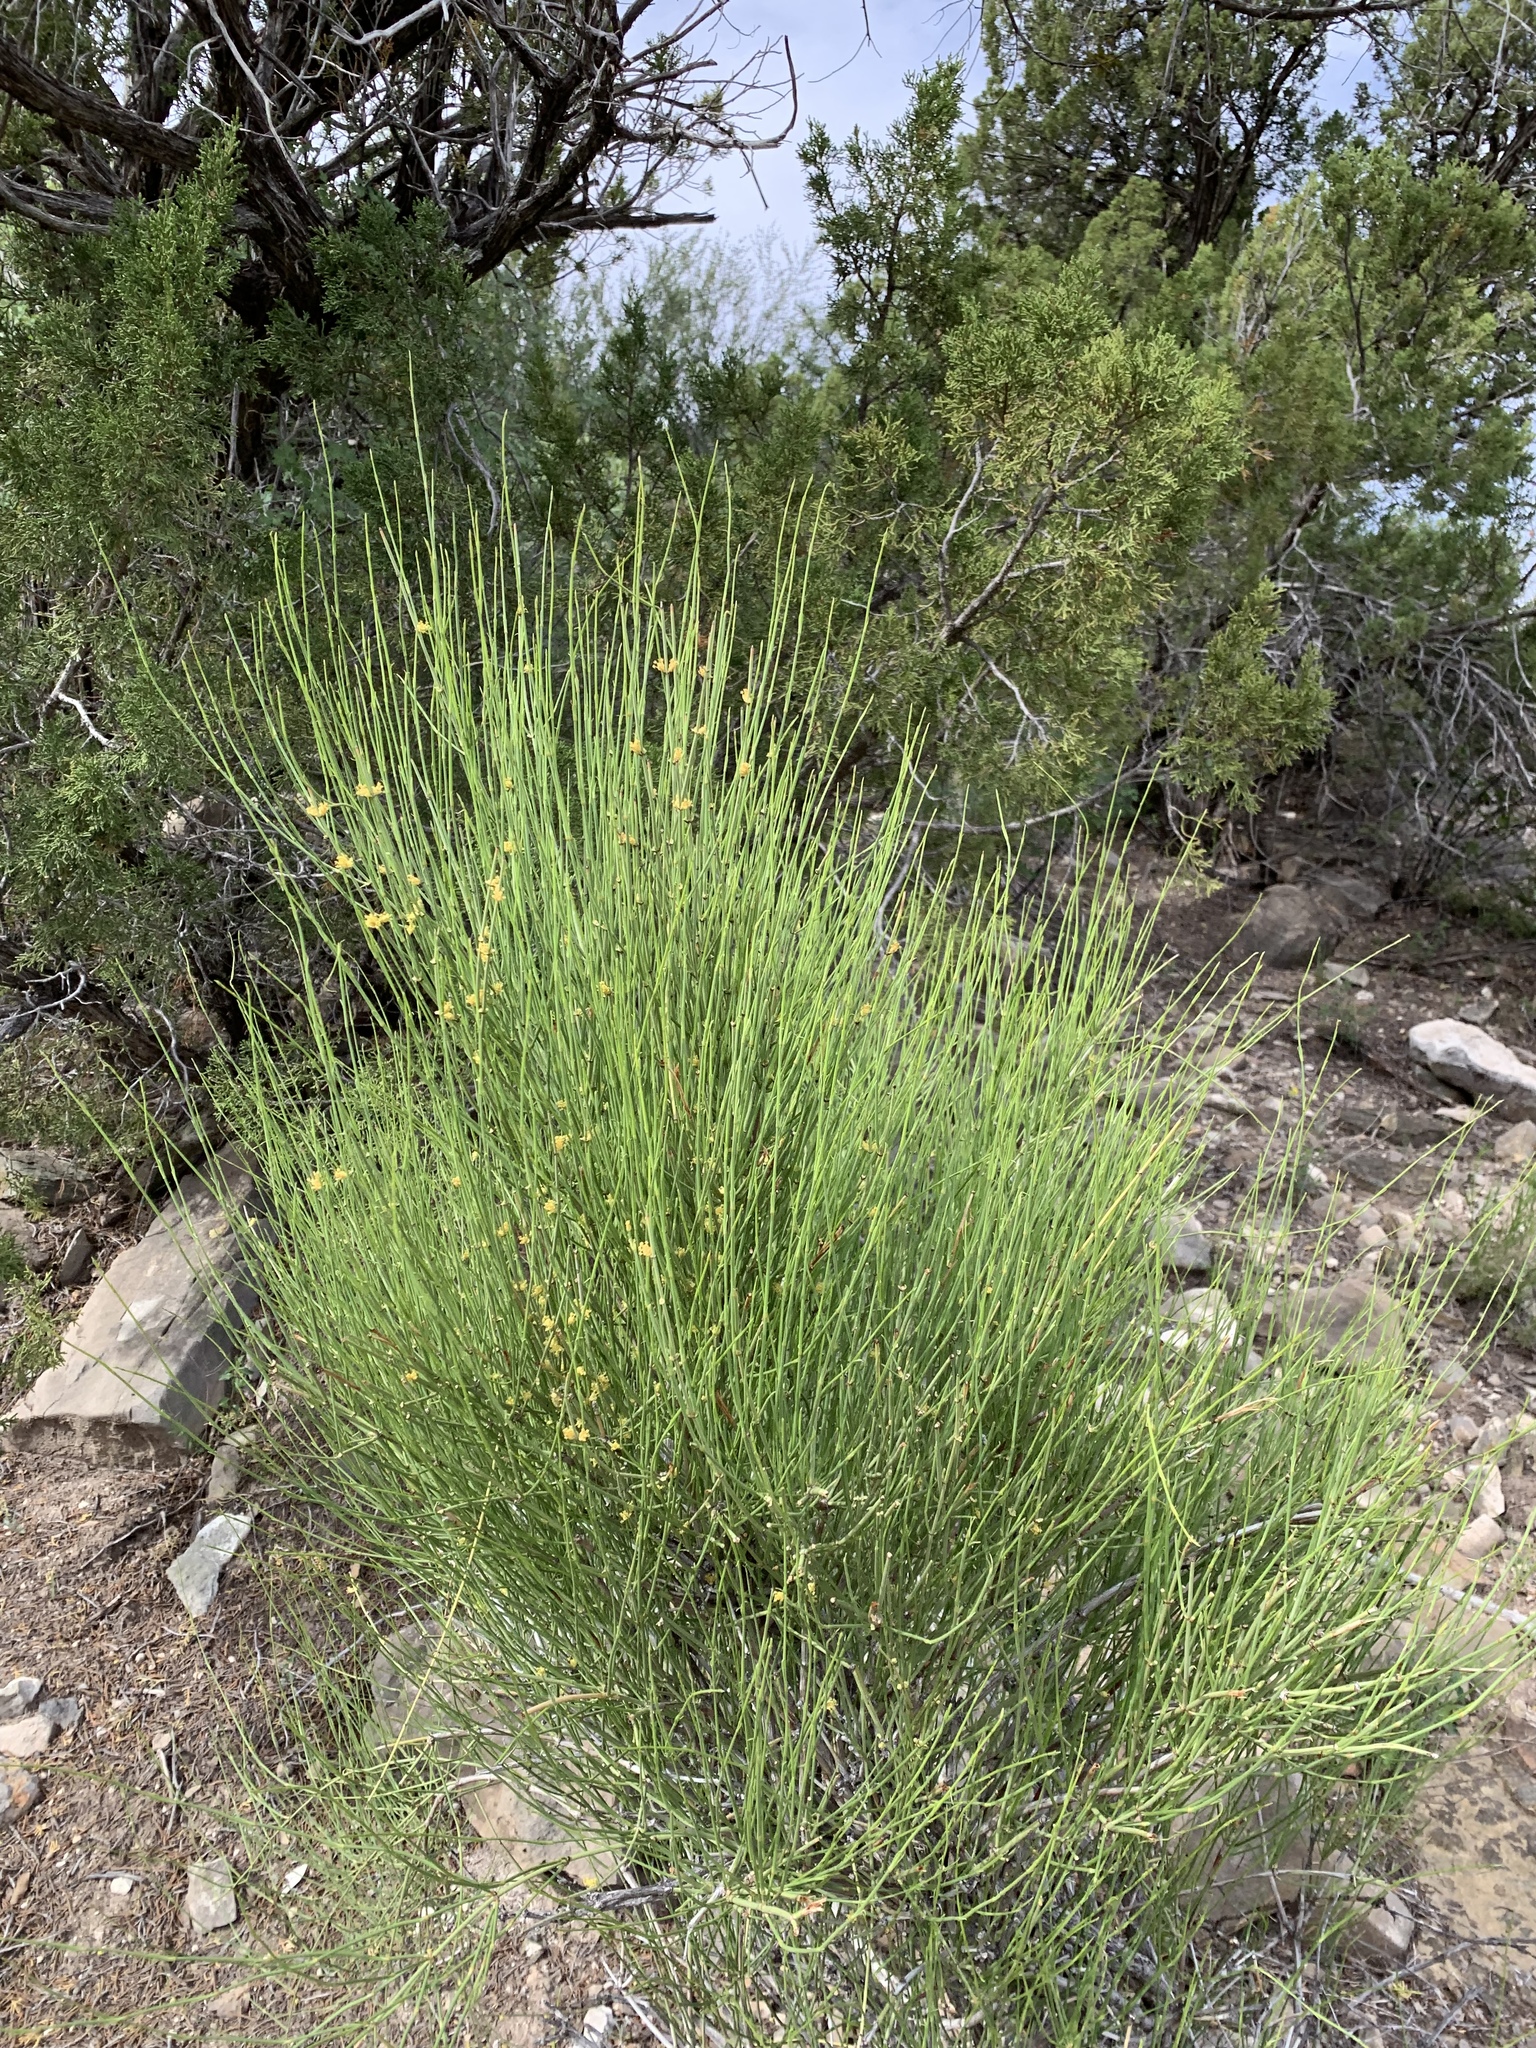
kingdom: Plantae
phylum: Tracheophyta
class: Gnetopsida
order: Ephedrales
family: Ephedraceae
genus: Ephedra
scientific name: Ephedra viridis
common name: Green ephedra
